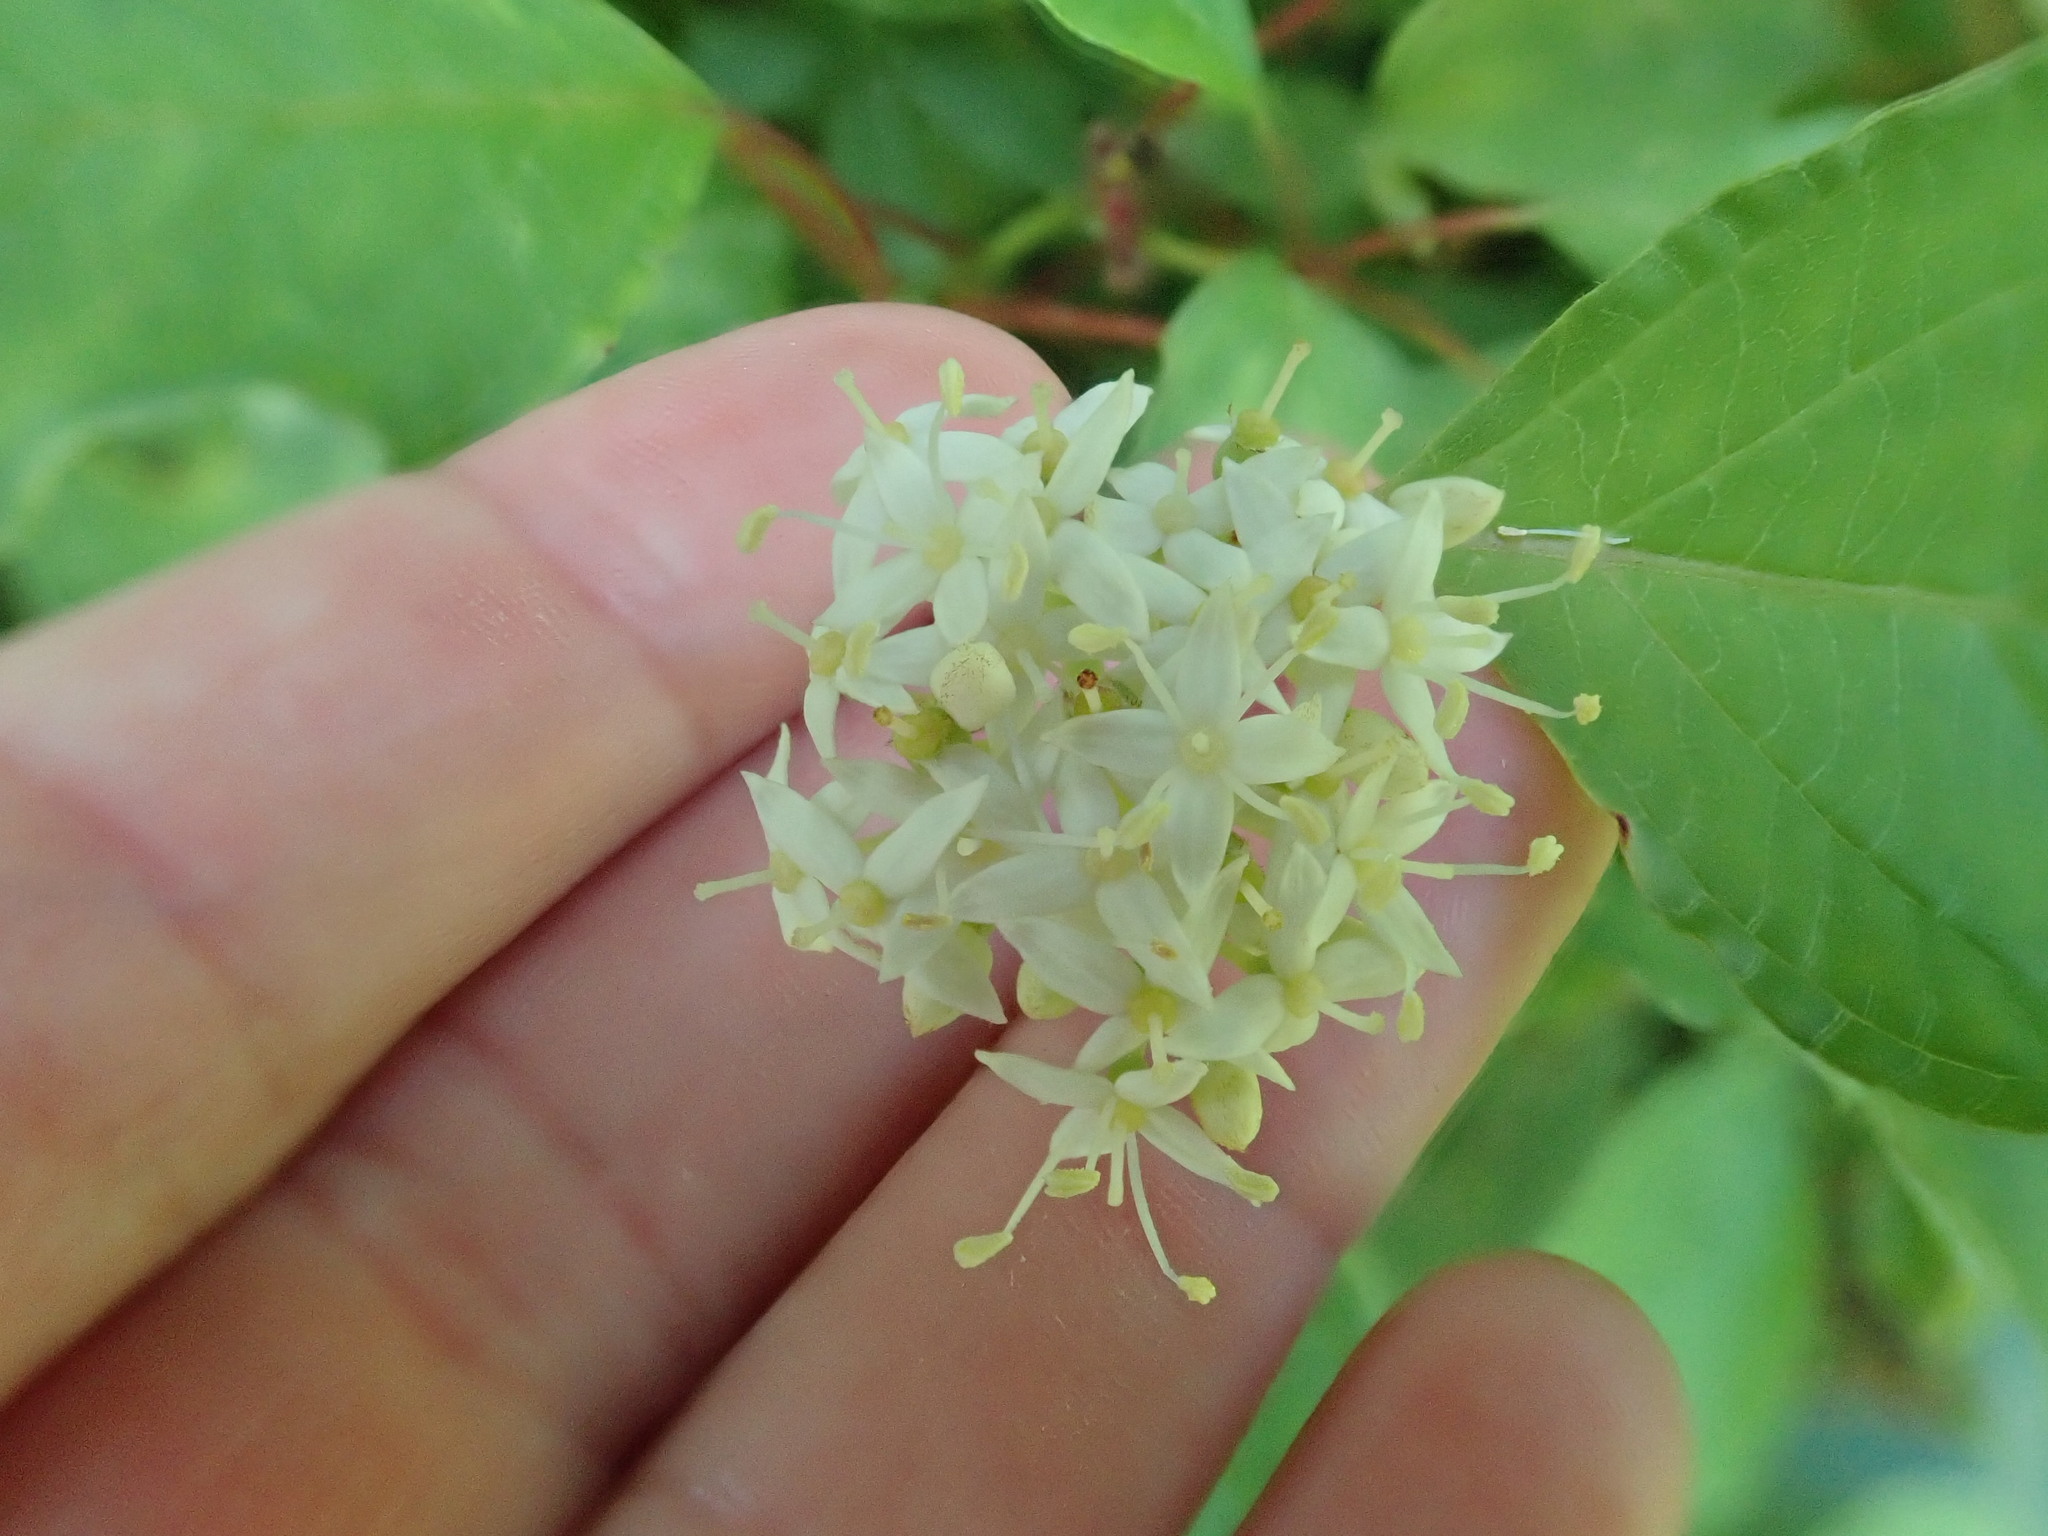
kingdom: Plantae
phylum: Tracheophyta
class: Magnoliopsida
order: Cornales
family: Cornaceae
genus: Cornus
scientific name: Cornus racemosa
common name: Panicled dogwood
